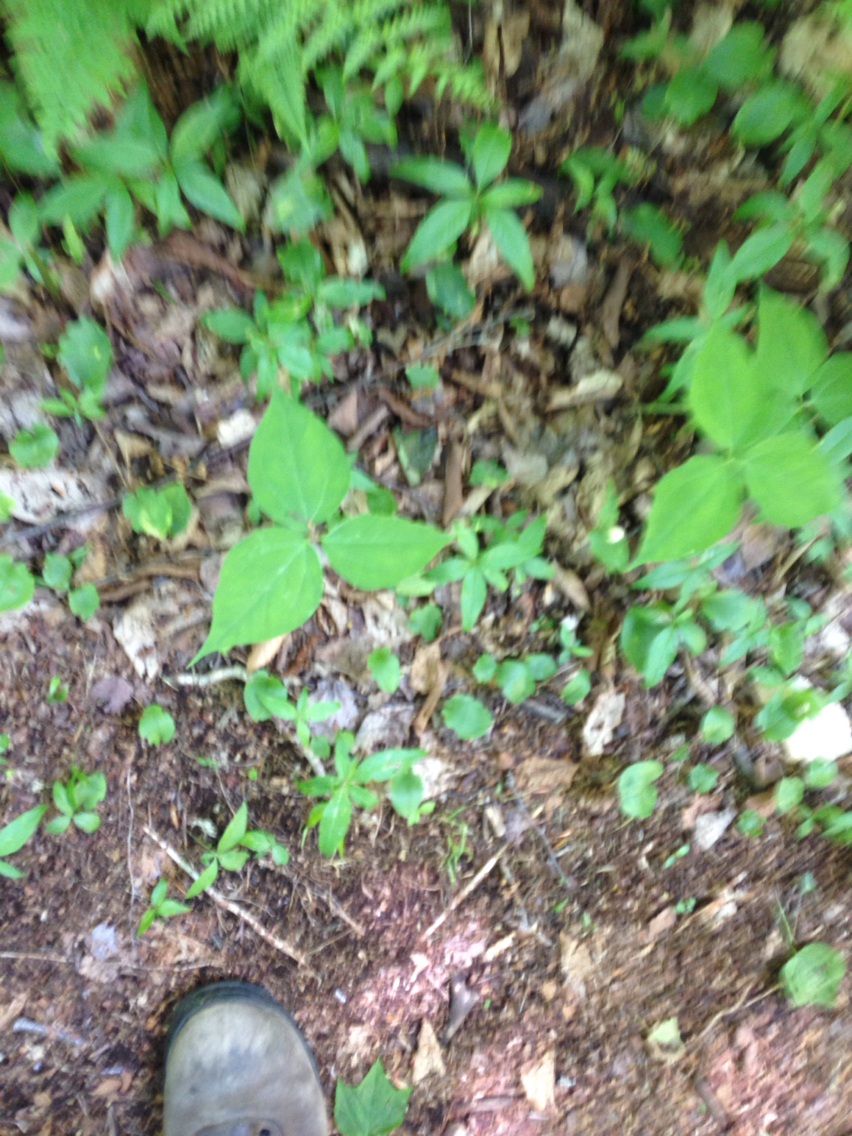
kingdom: Plantae
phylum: Tracheophyta
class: Liliopsida
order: Liliales
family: Melanthiaceae
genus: Trillium
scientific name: Trillium undulatum
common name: Paint trillium
